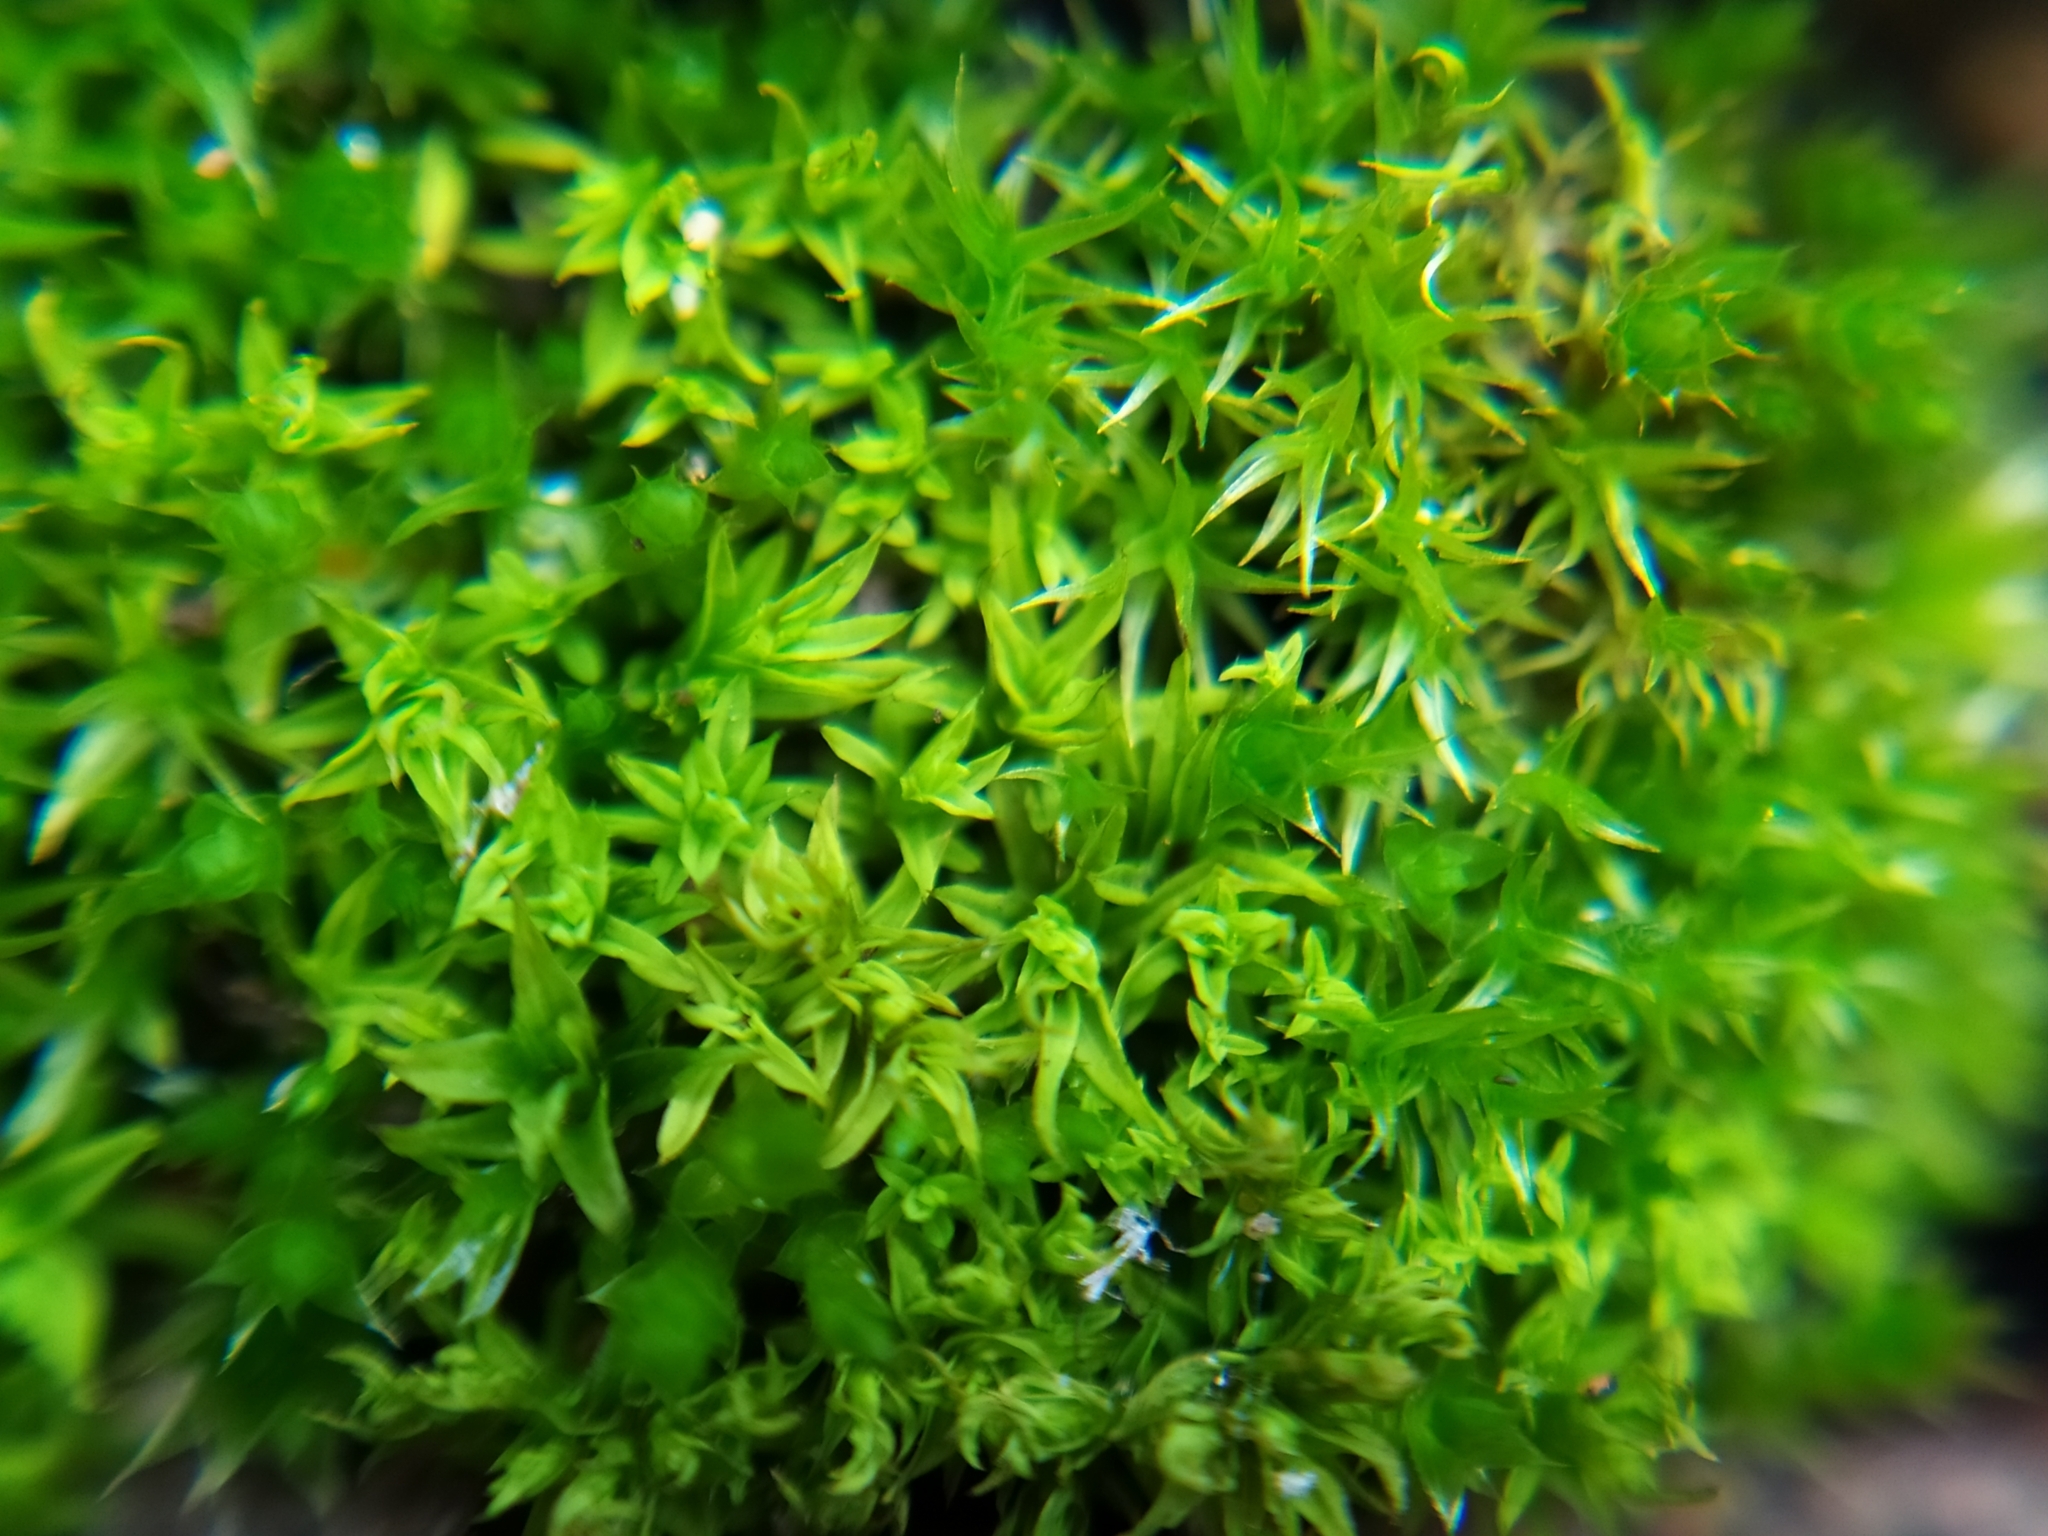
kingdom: Plantae
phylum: Bryophyta
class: Bryopsida
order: Dicranales
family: Ditrichaceae
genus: Ceratodon
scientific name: Ceratodon purpureus
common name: Redshank
